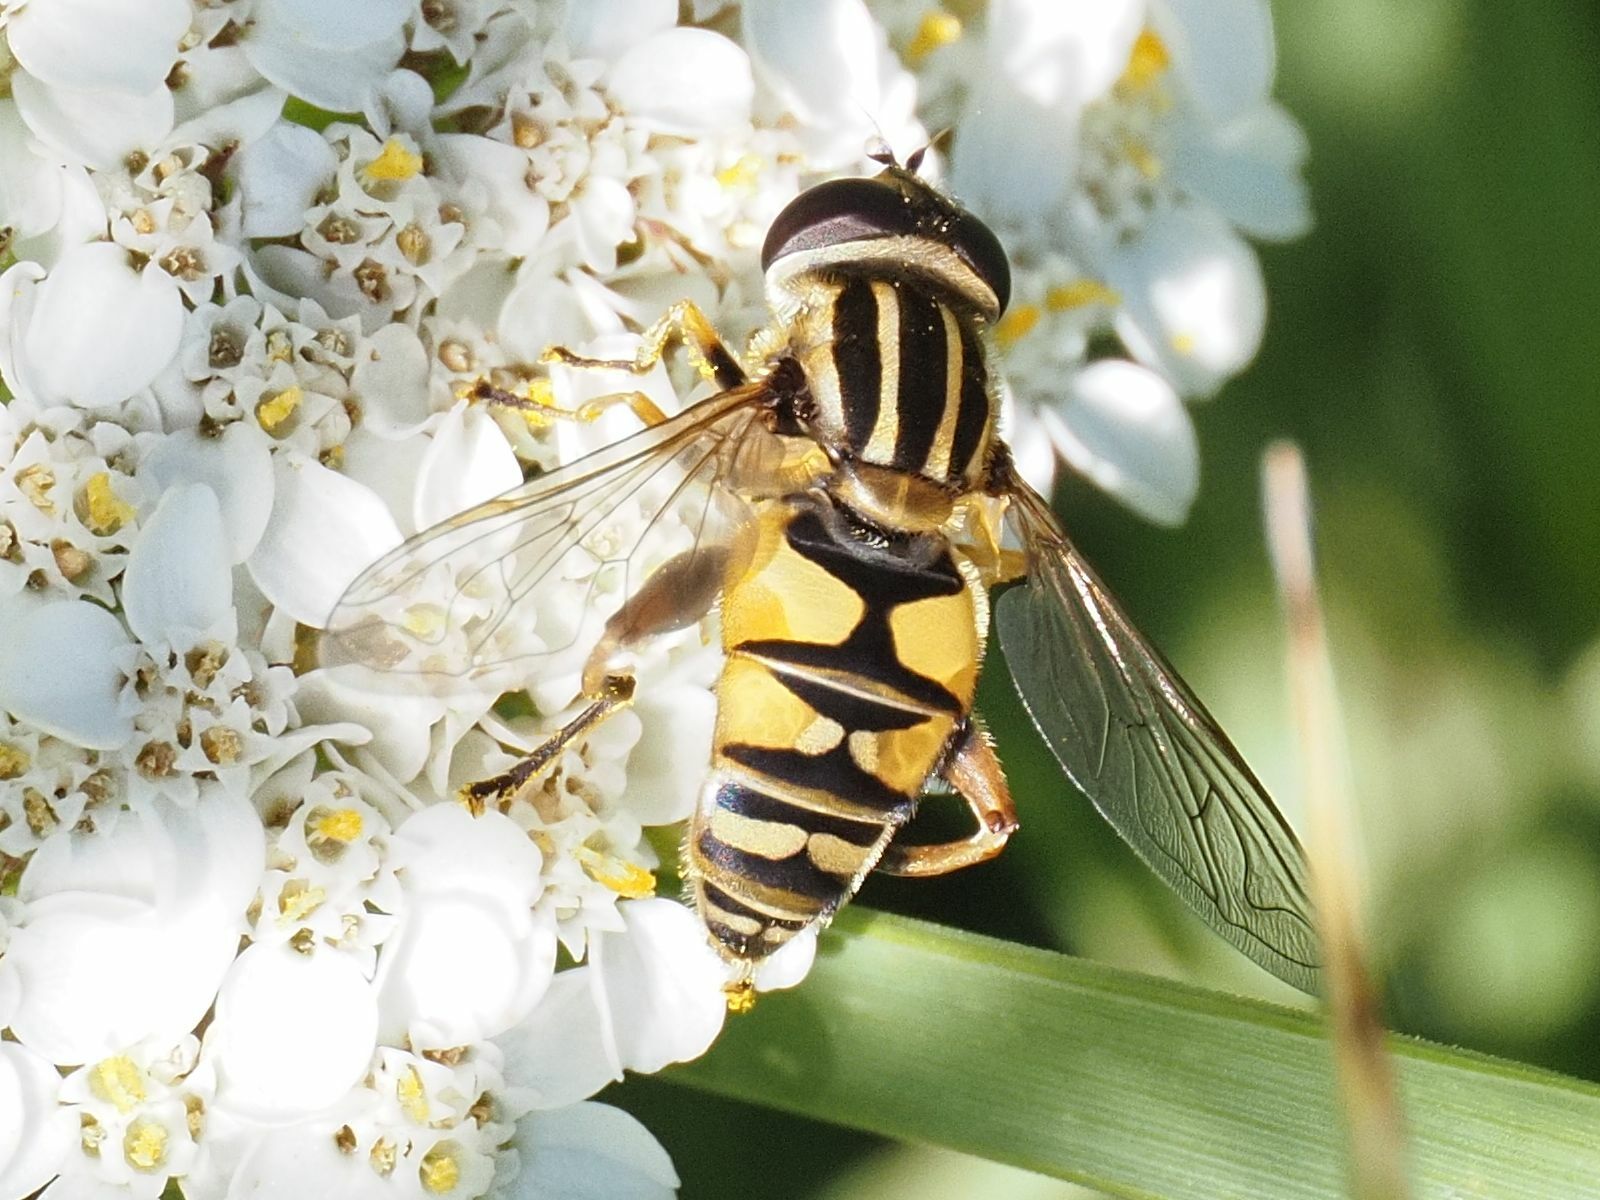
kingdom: Animalia
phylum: Arthropoda
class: Insecta
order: Diptera
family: Syrphidae
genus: Helophilus
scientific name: Helophilus pendulus
